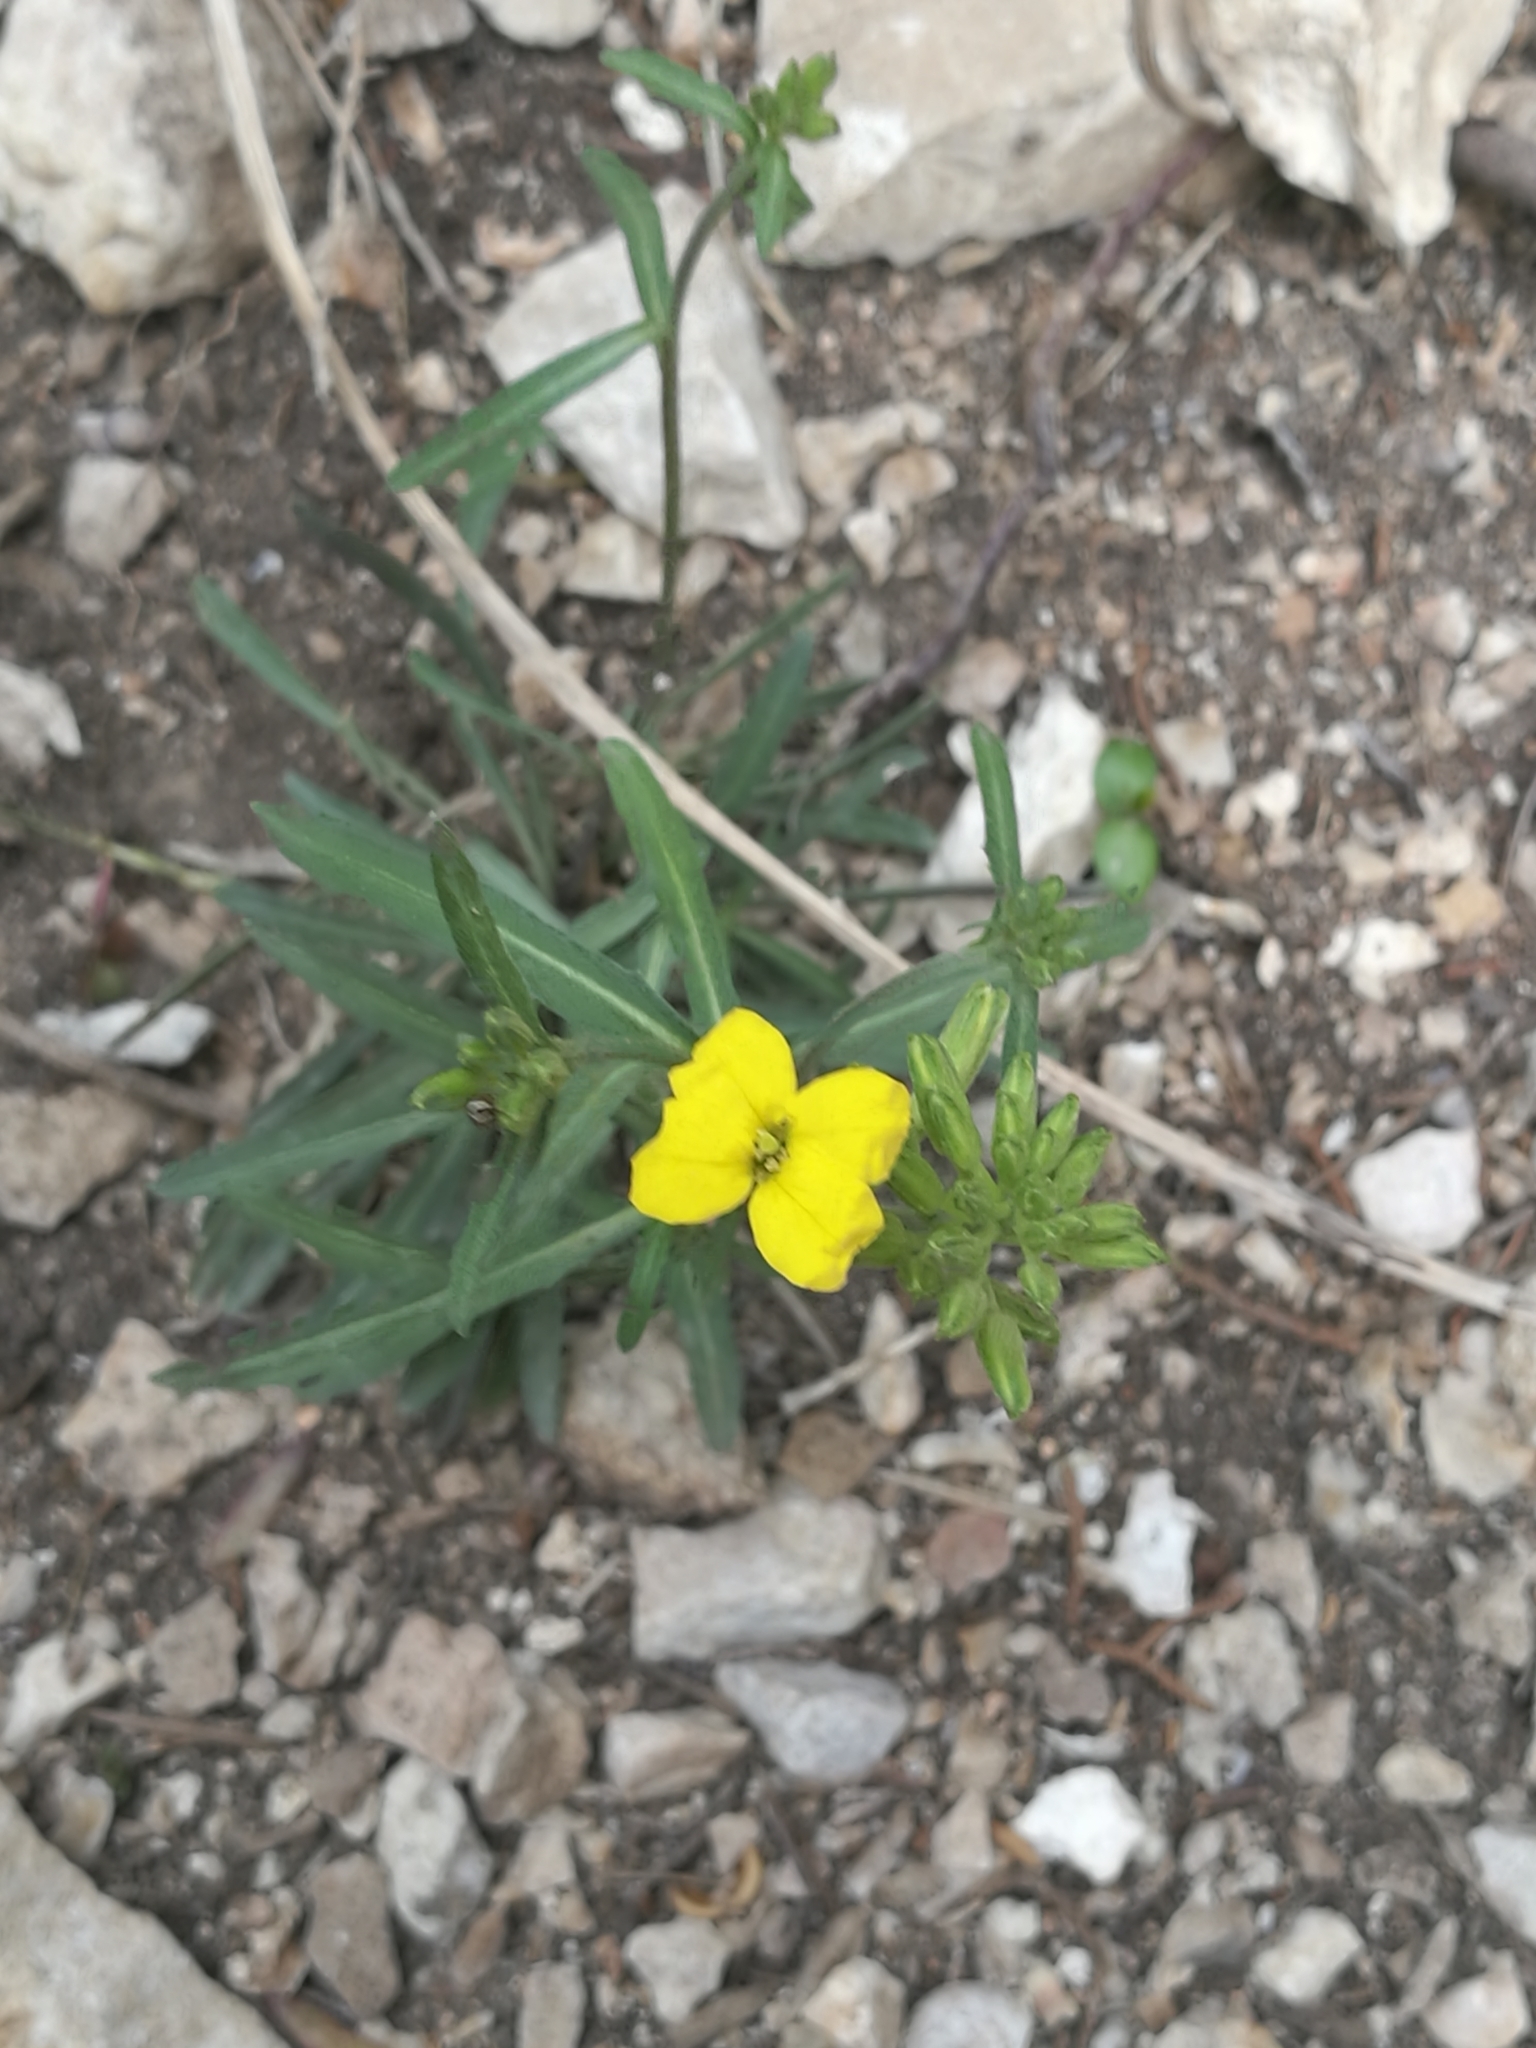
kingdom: Plantae
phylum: Tracheophyta
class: Magnoliopsida
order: Brassicales
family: Brassicaceae
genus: Erysimum
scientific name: Erysimum cheiri
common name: Wallflower
